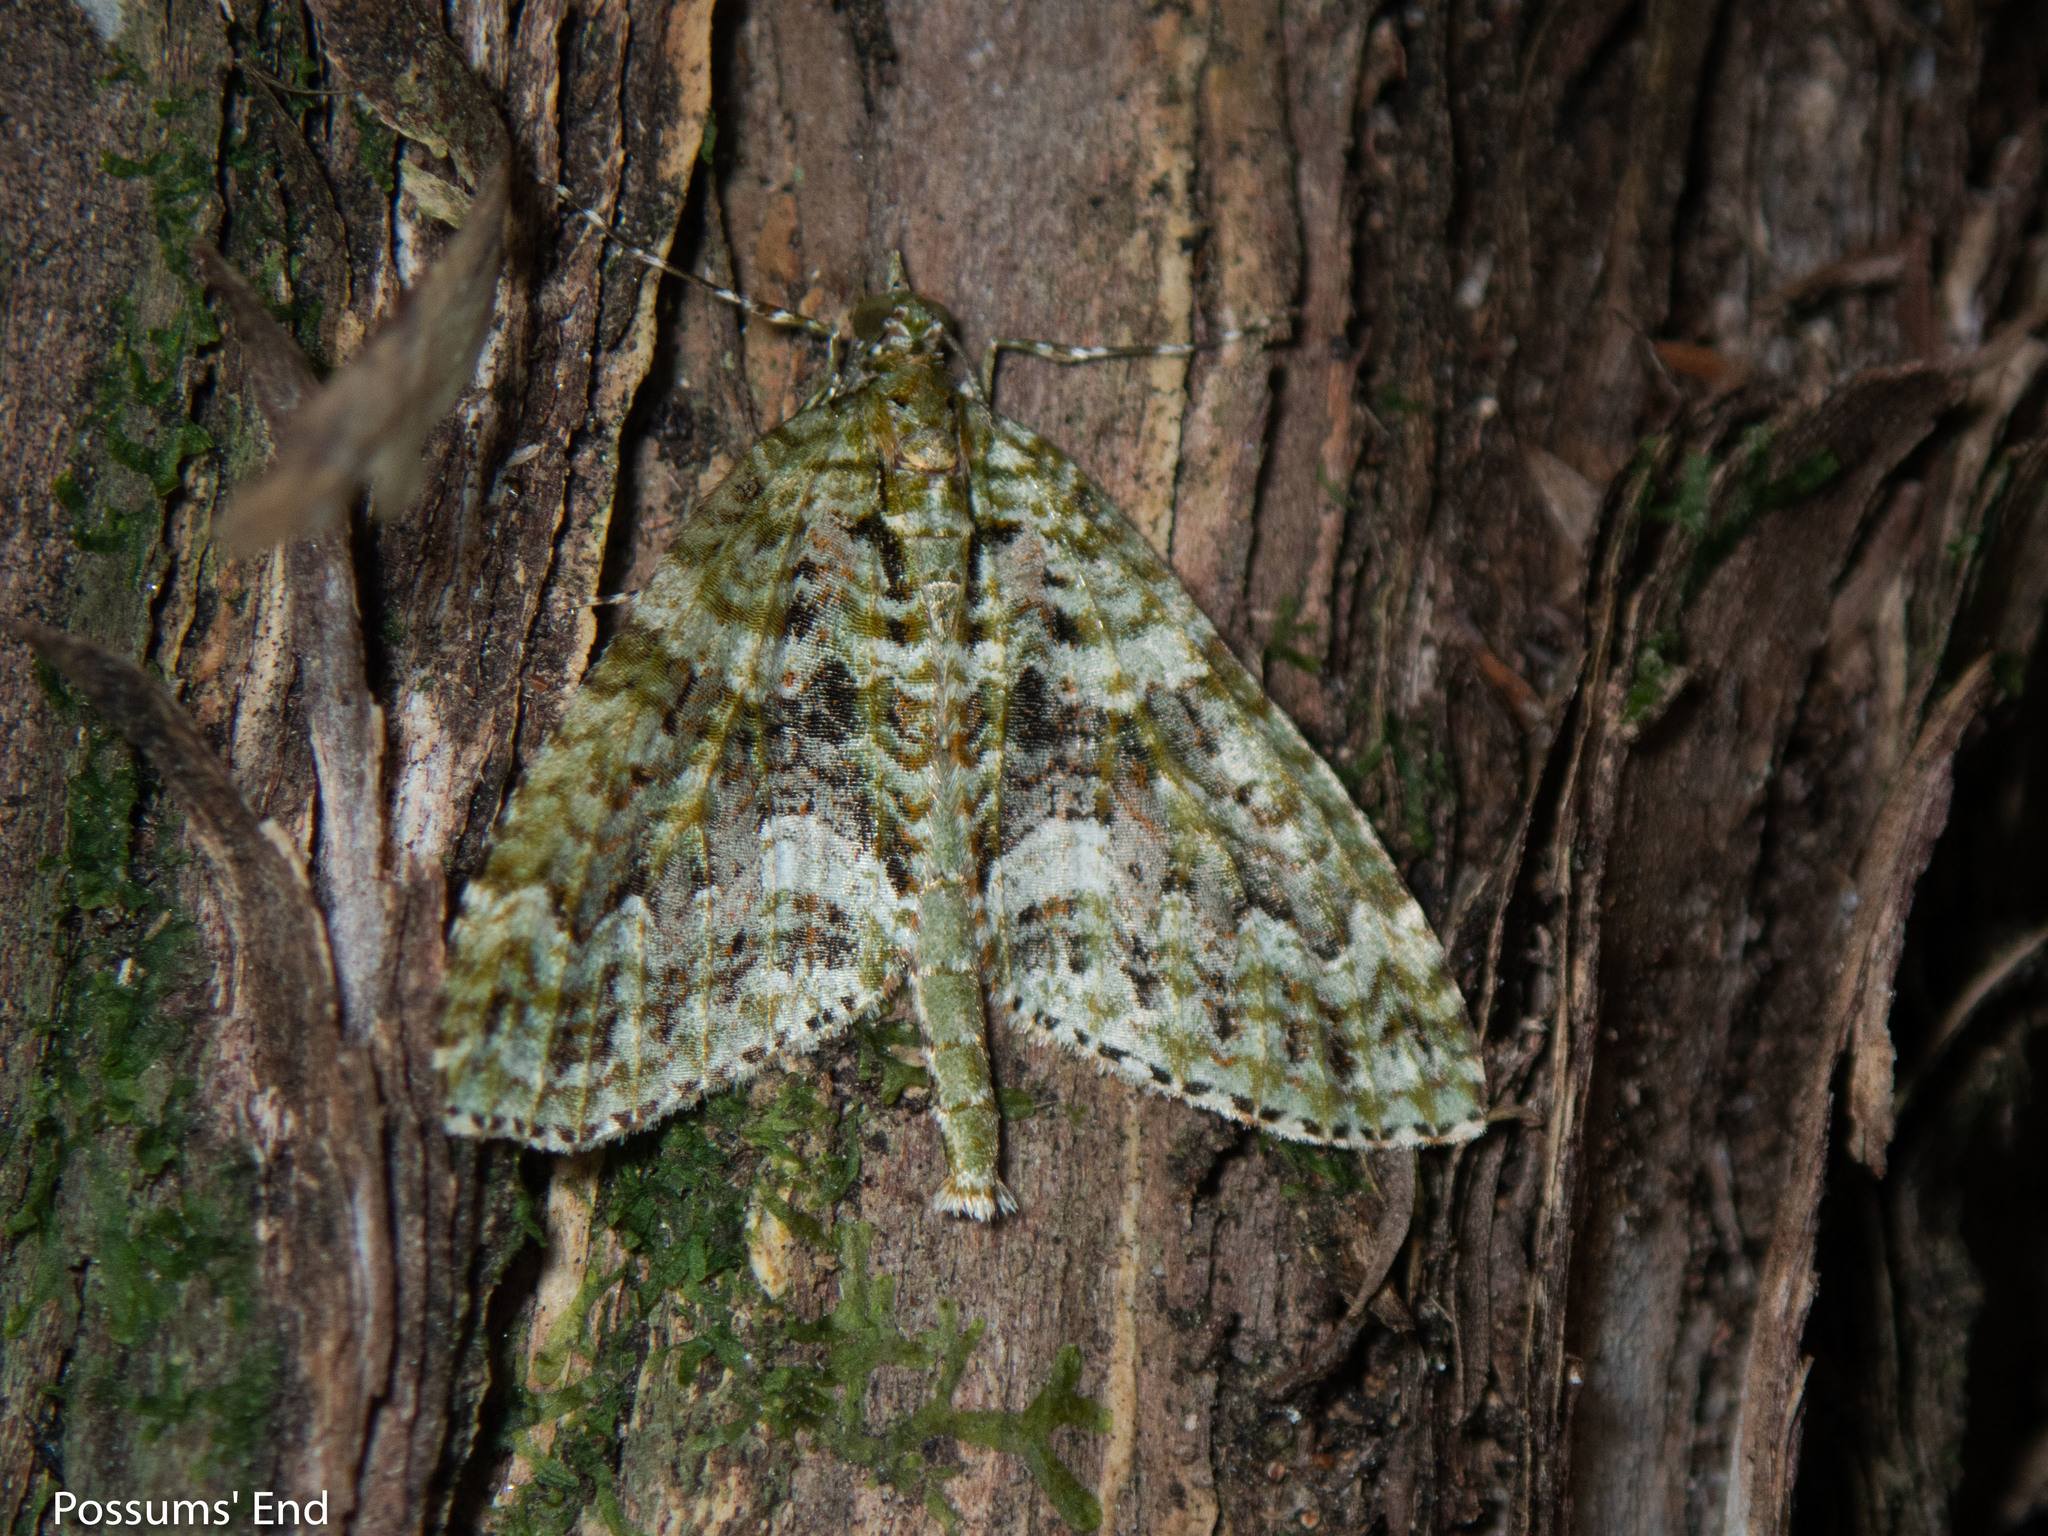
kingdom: Animalia
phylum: Arthropoda
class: Insecta
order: Lepidoptera
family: Geometridae
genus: Tatosoma
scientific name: Tatosoma agrionata
